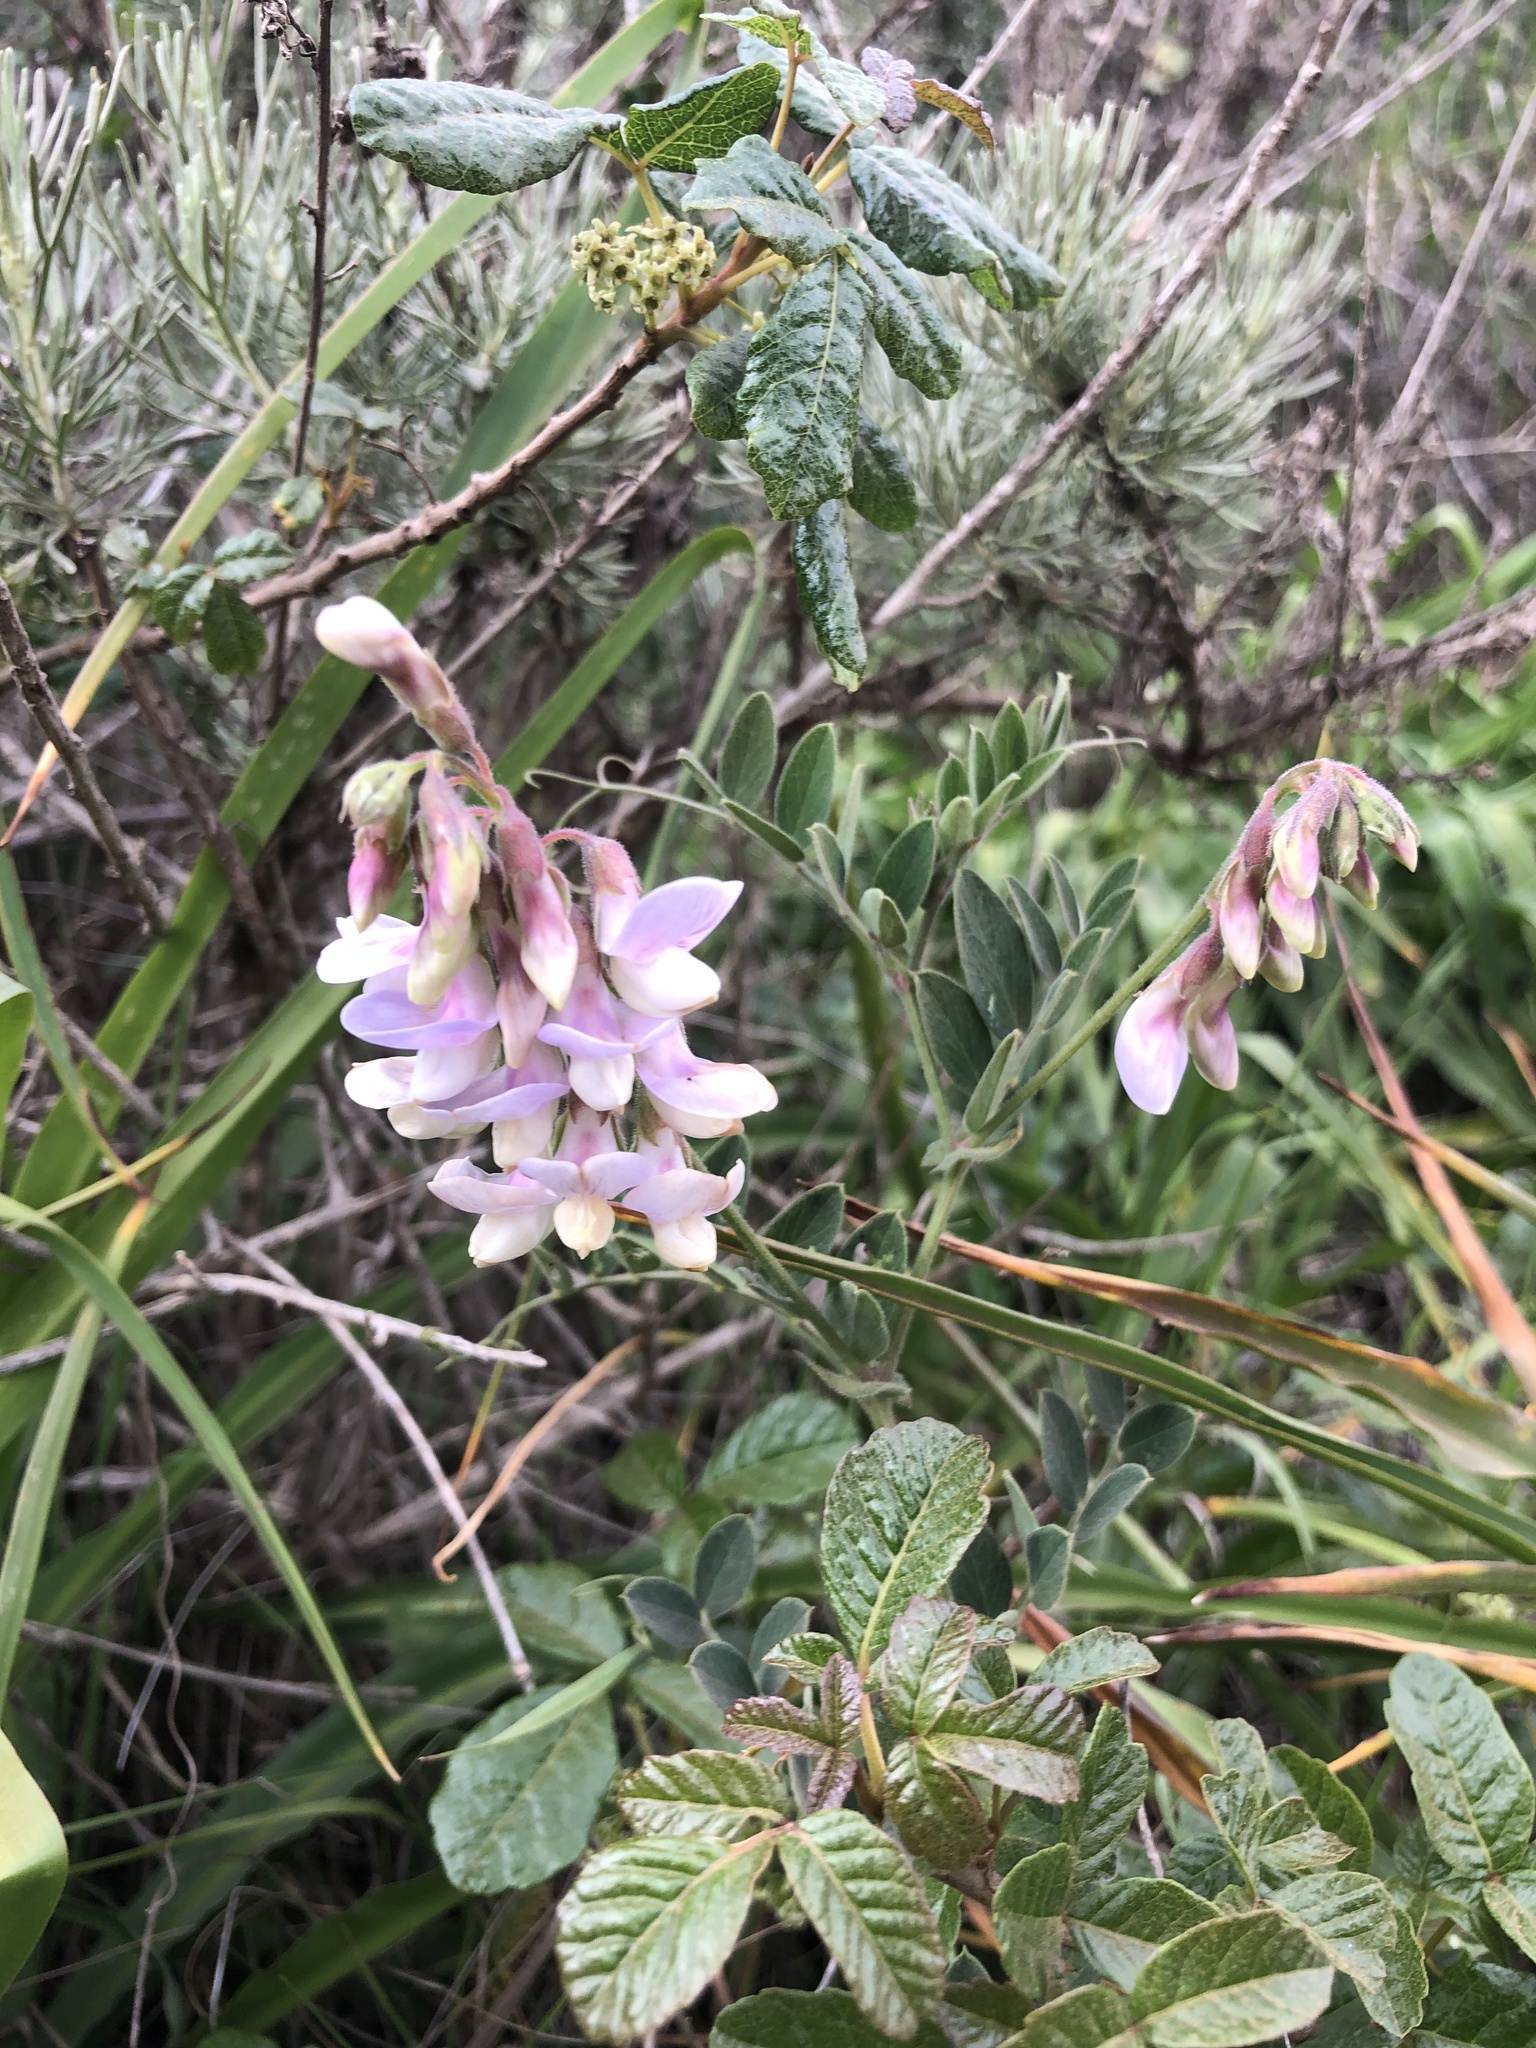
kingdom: Plantae
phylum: Tracheophyta
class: Magnoliopsida
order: Fabales
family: Fabaceae
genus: Lathyrus
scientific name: Lathyrus vestitus
